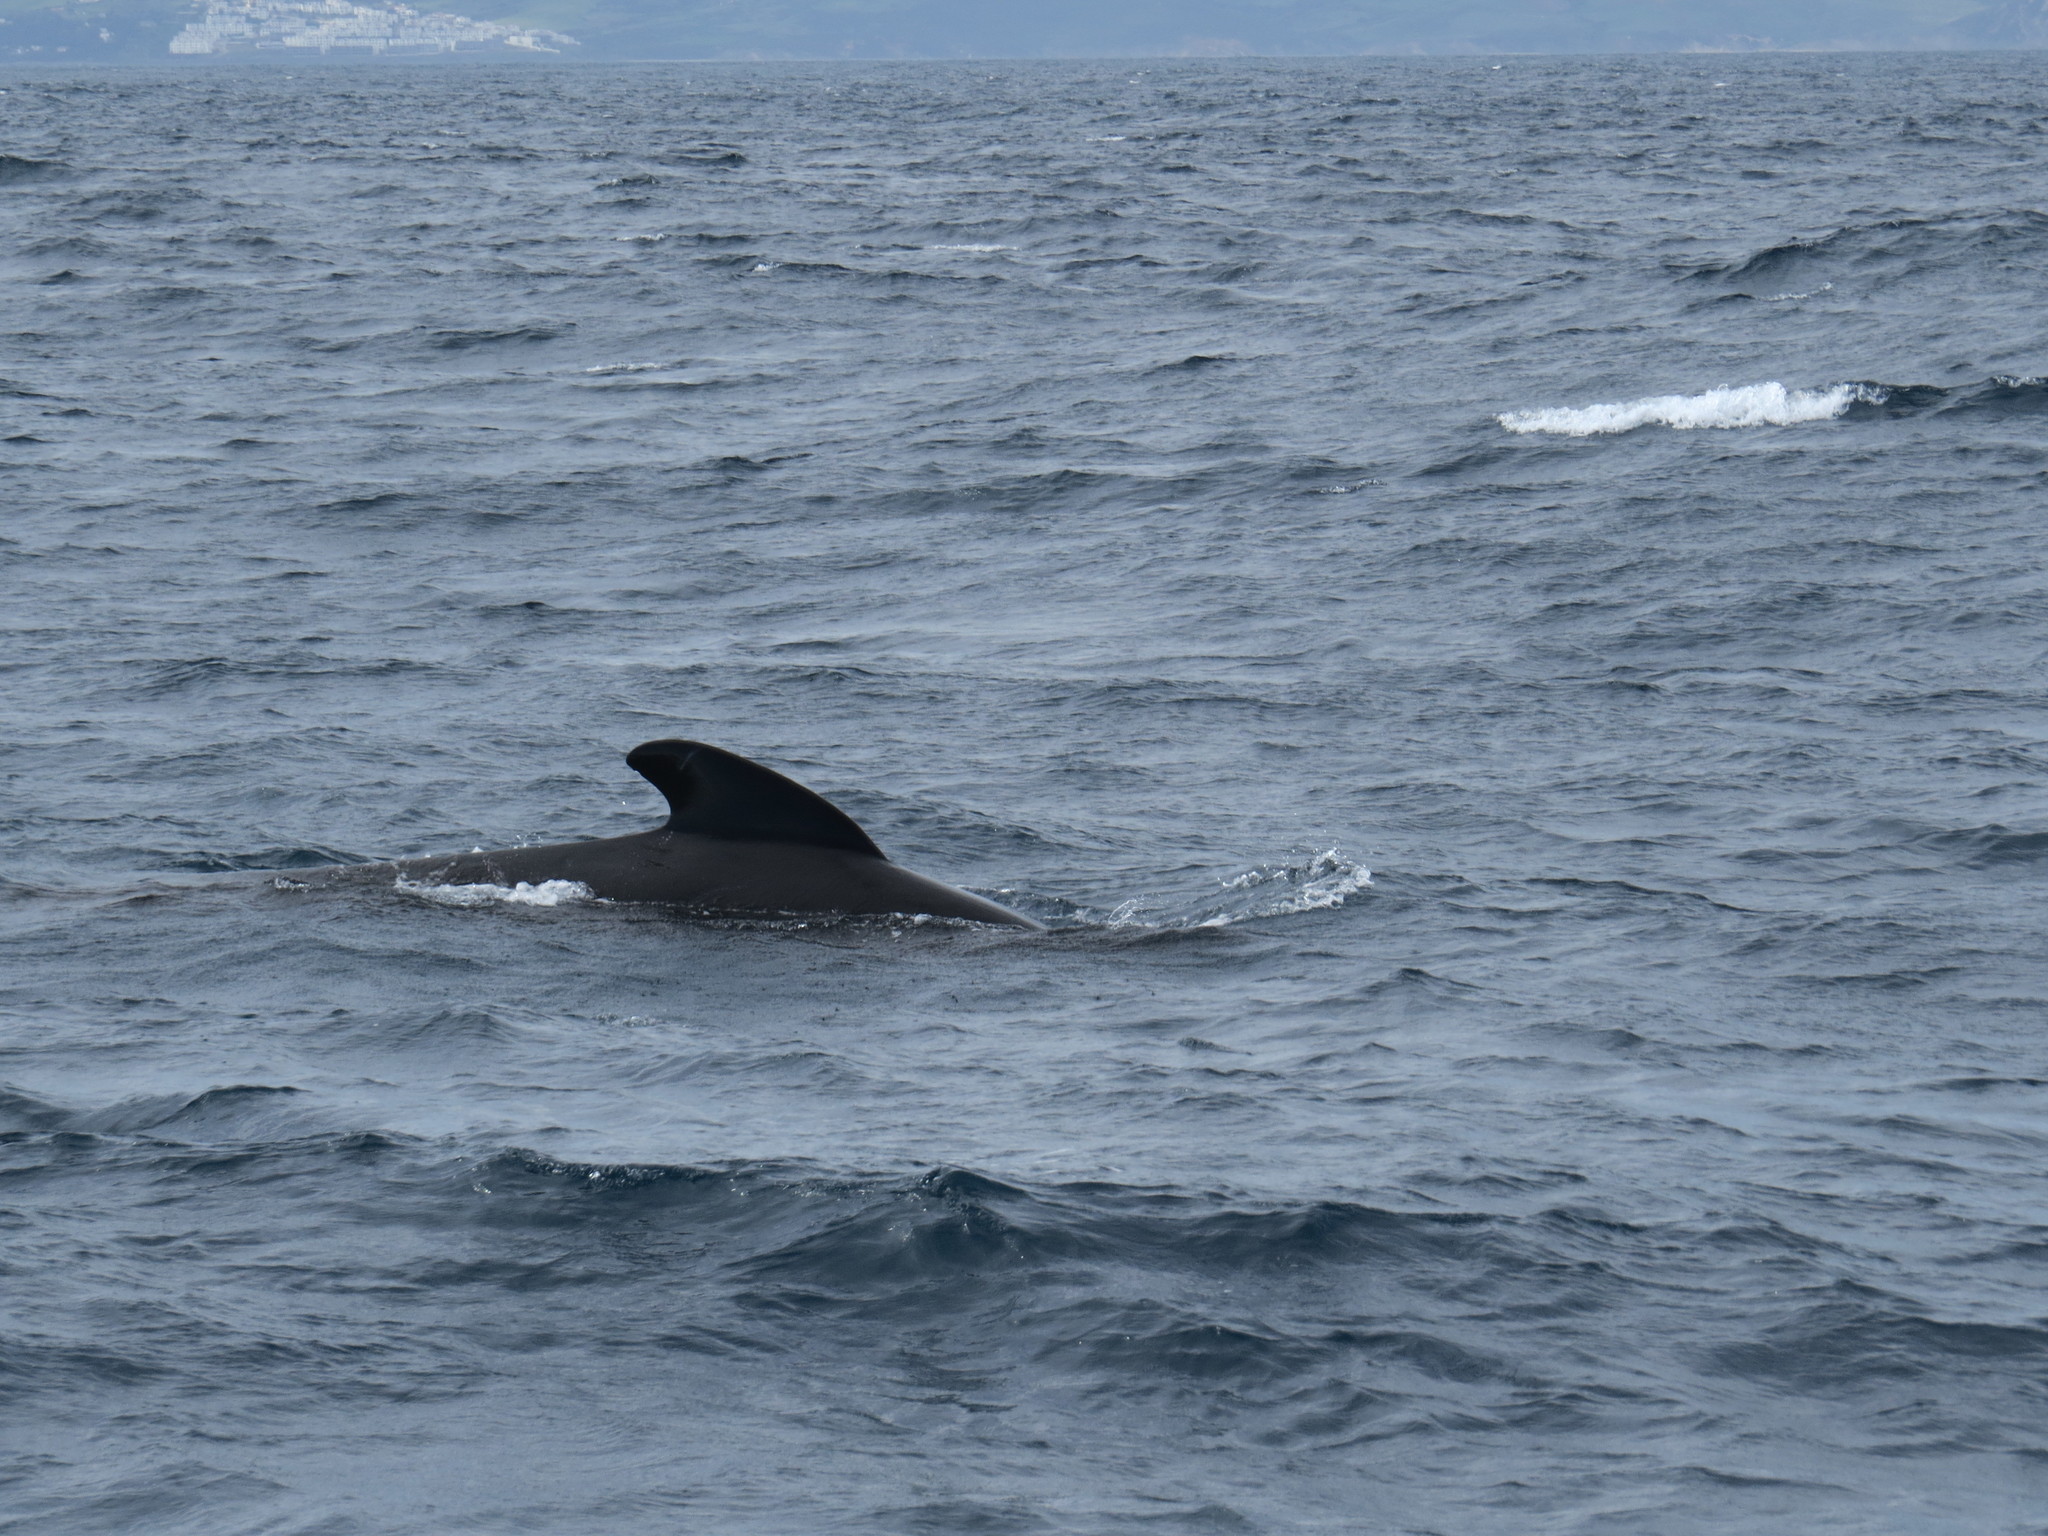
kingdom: Animalia
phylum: Chordata
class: Mammalia
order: Cetacea
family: Delphinidae
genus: Globicephala
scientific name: Globicephala melas
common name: Long-finned pilot whale
